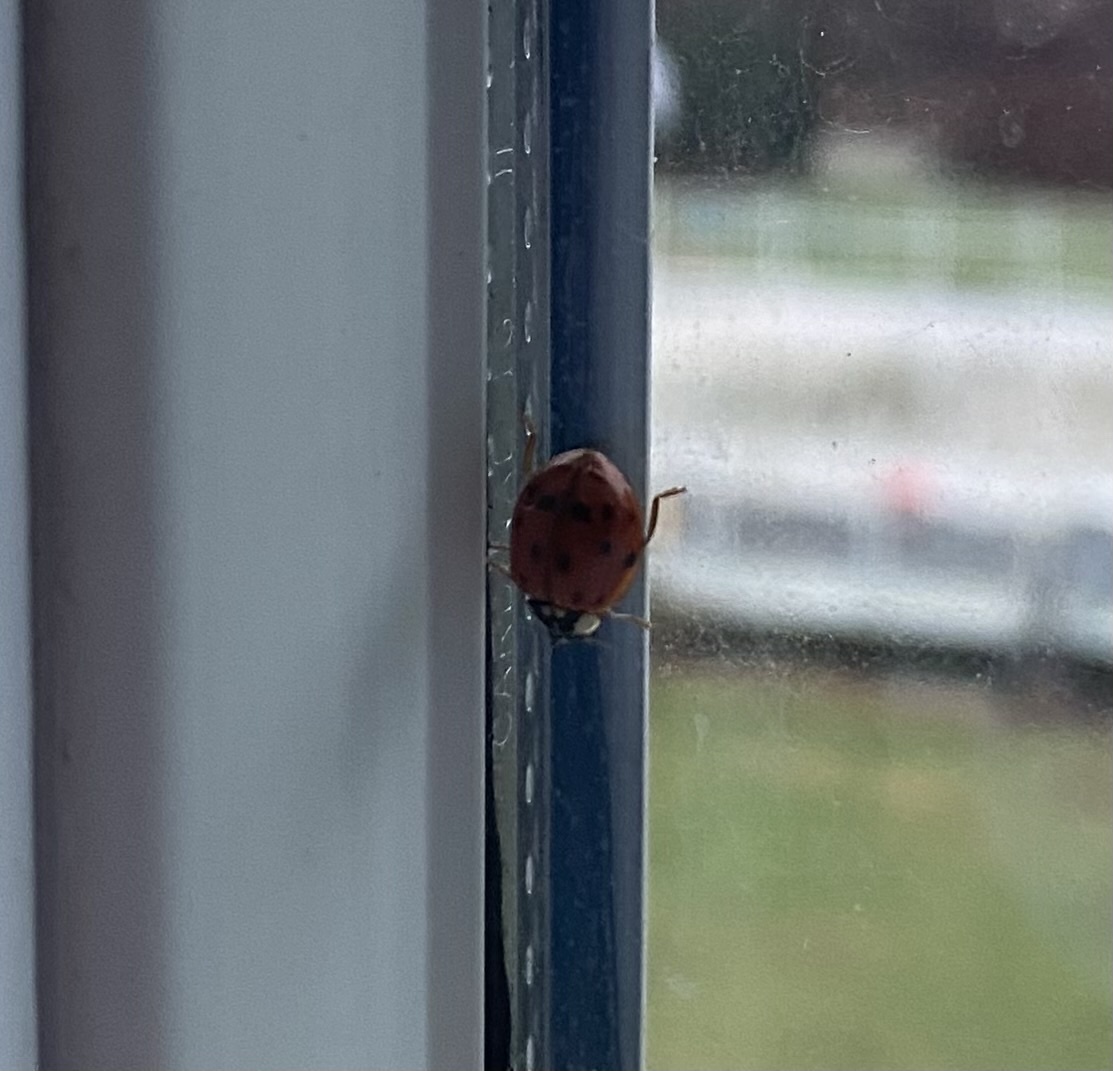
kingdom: Animalia
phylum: Arthropoda
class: Insecta
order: Coleoptera
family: Coccinellidae
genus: Harmonia
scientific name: Harmonia axyridis
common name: Harlequin ladybird
